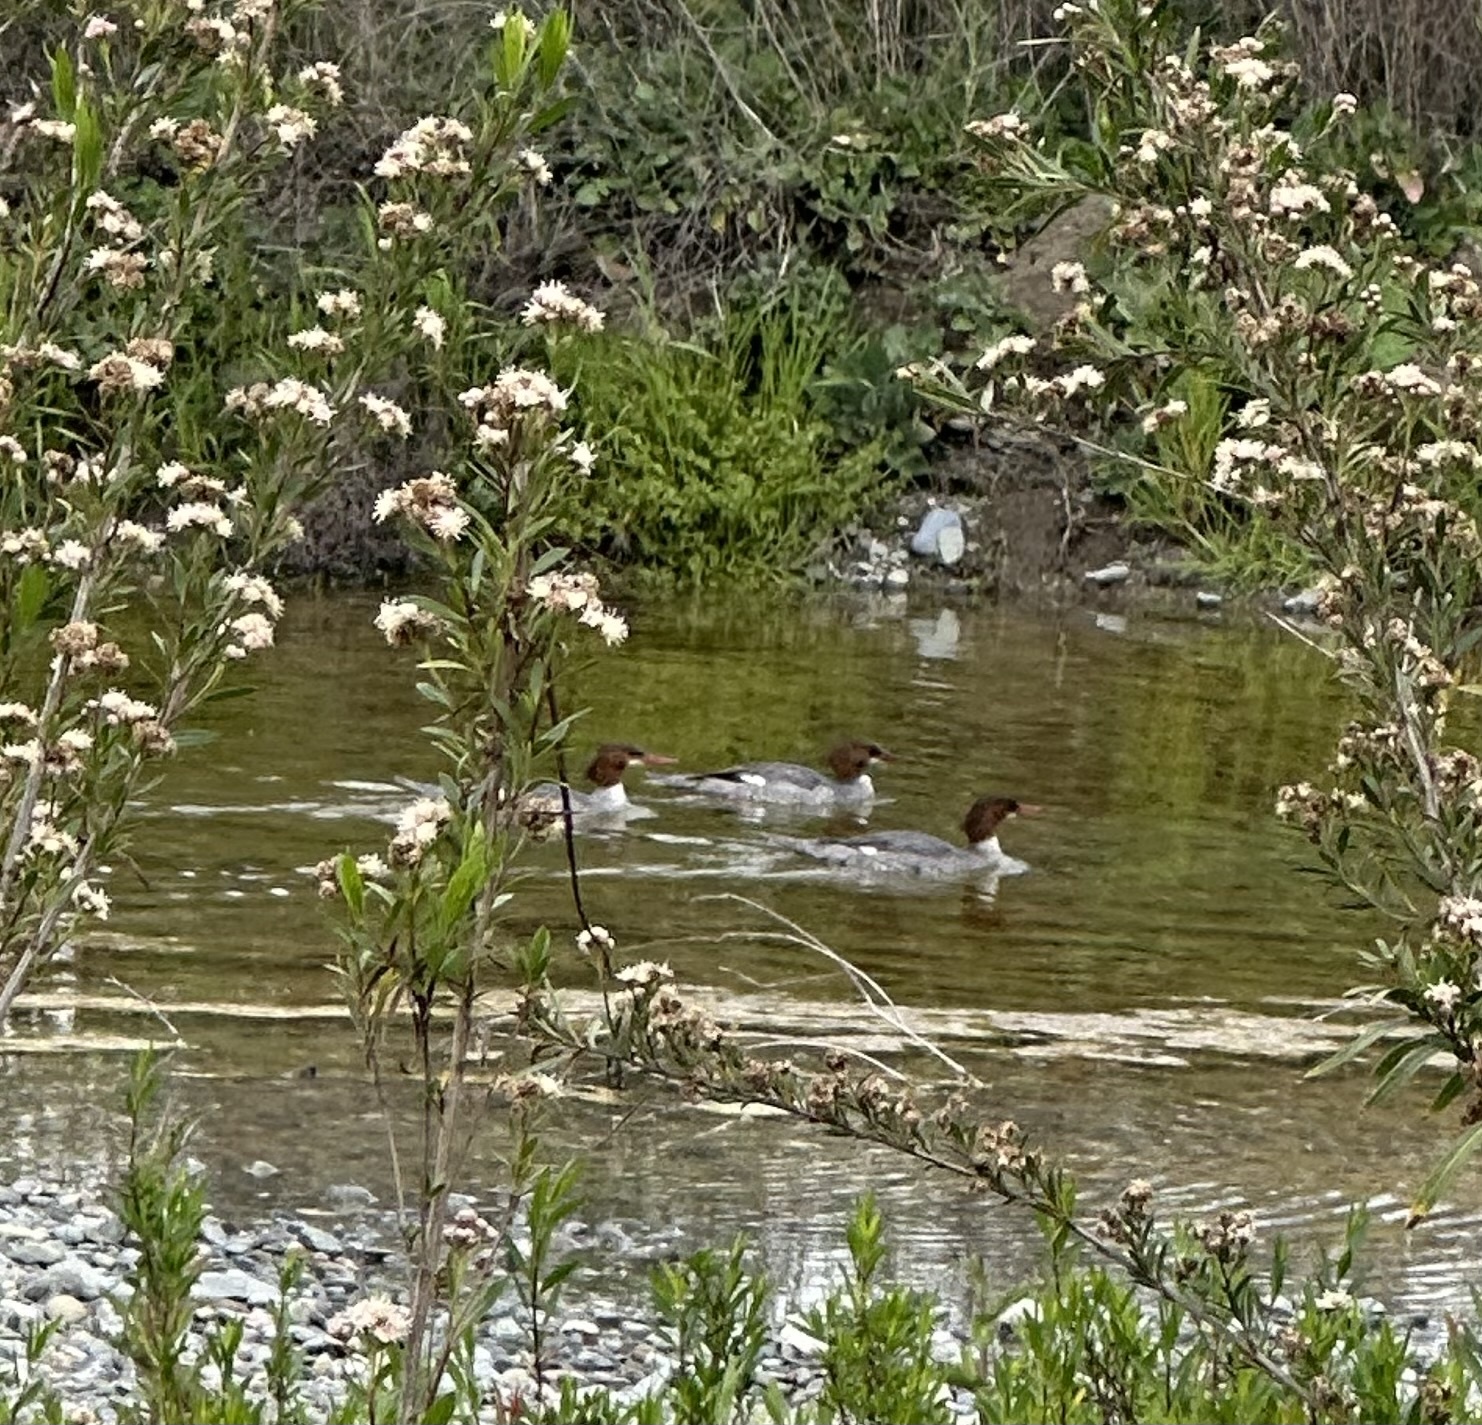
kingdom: Animalia
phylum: Chordata
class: Aves
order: Anseriformes
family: Anatidae
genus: Mergus
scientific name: Mergus merganser
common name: Common merganser
